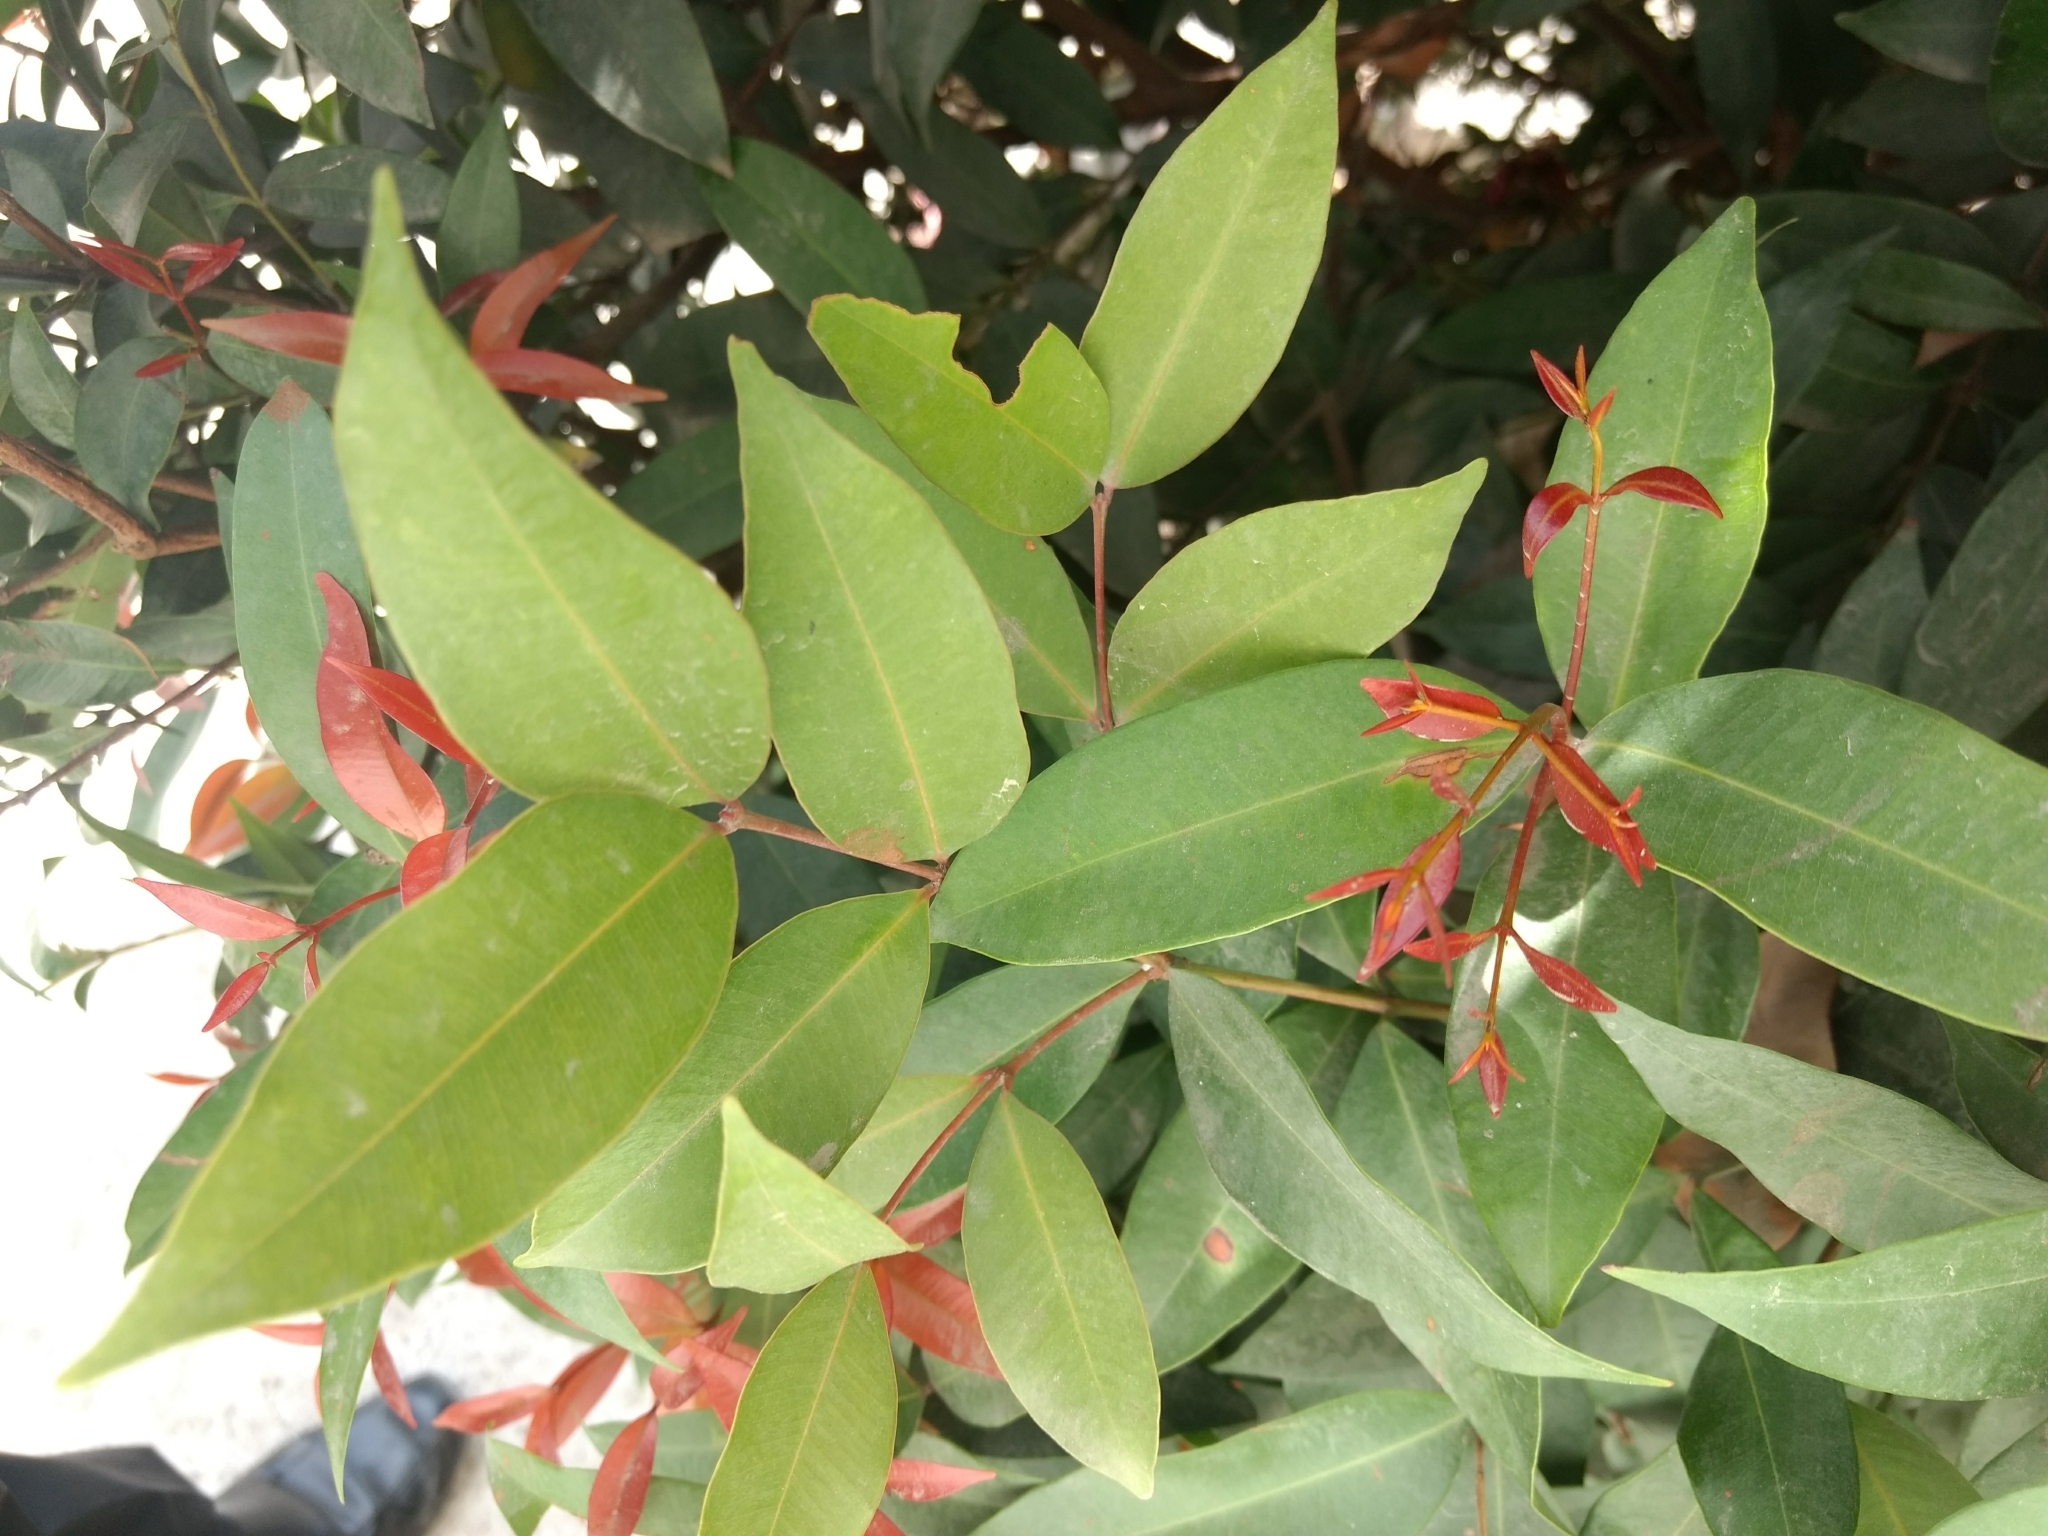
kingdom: Plantae
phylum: Tracheophyta
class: Magnoliopsida
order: Myrtales
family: Myrtaceae
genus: Syzygium
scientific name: Syzygium myrtifolium
